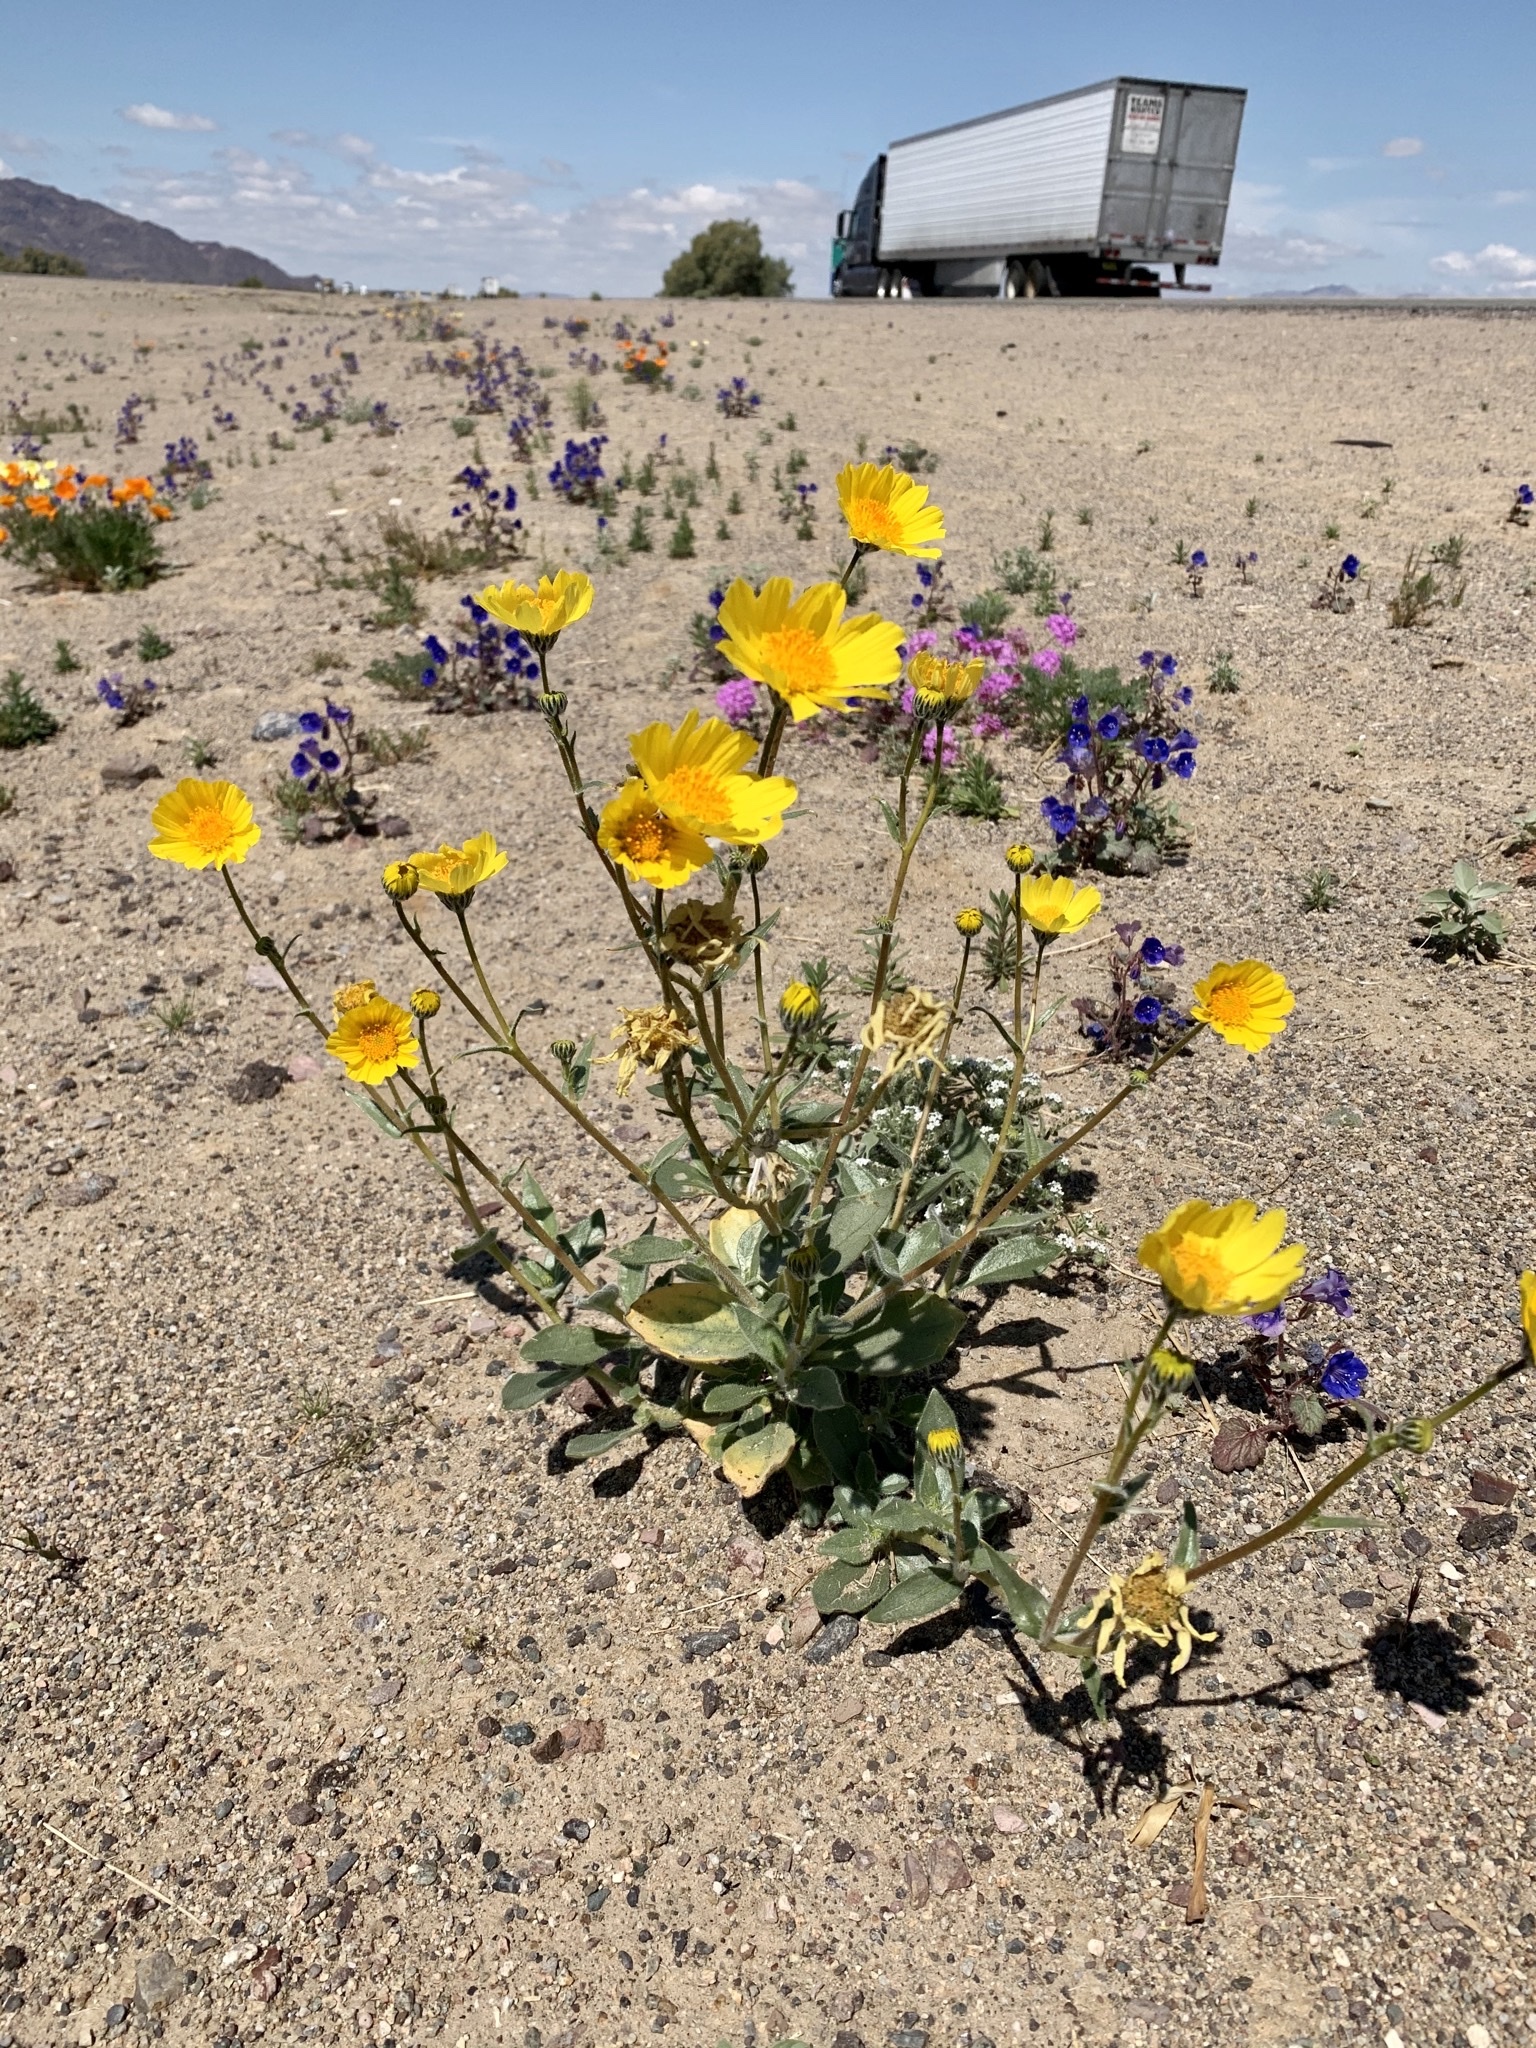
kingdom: Plantae
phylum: Tracheophyta
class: Magnoliopsida
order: Asterales
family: Asteraceae
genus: Geraea
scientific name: Geraea canescens
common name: Desert-gold
